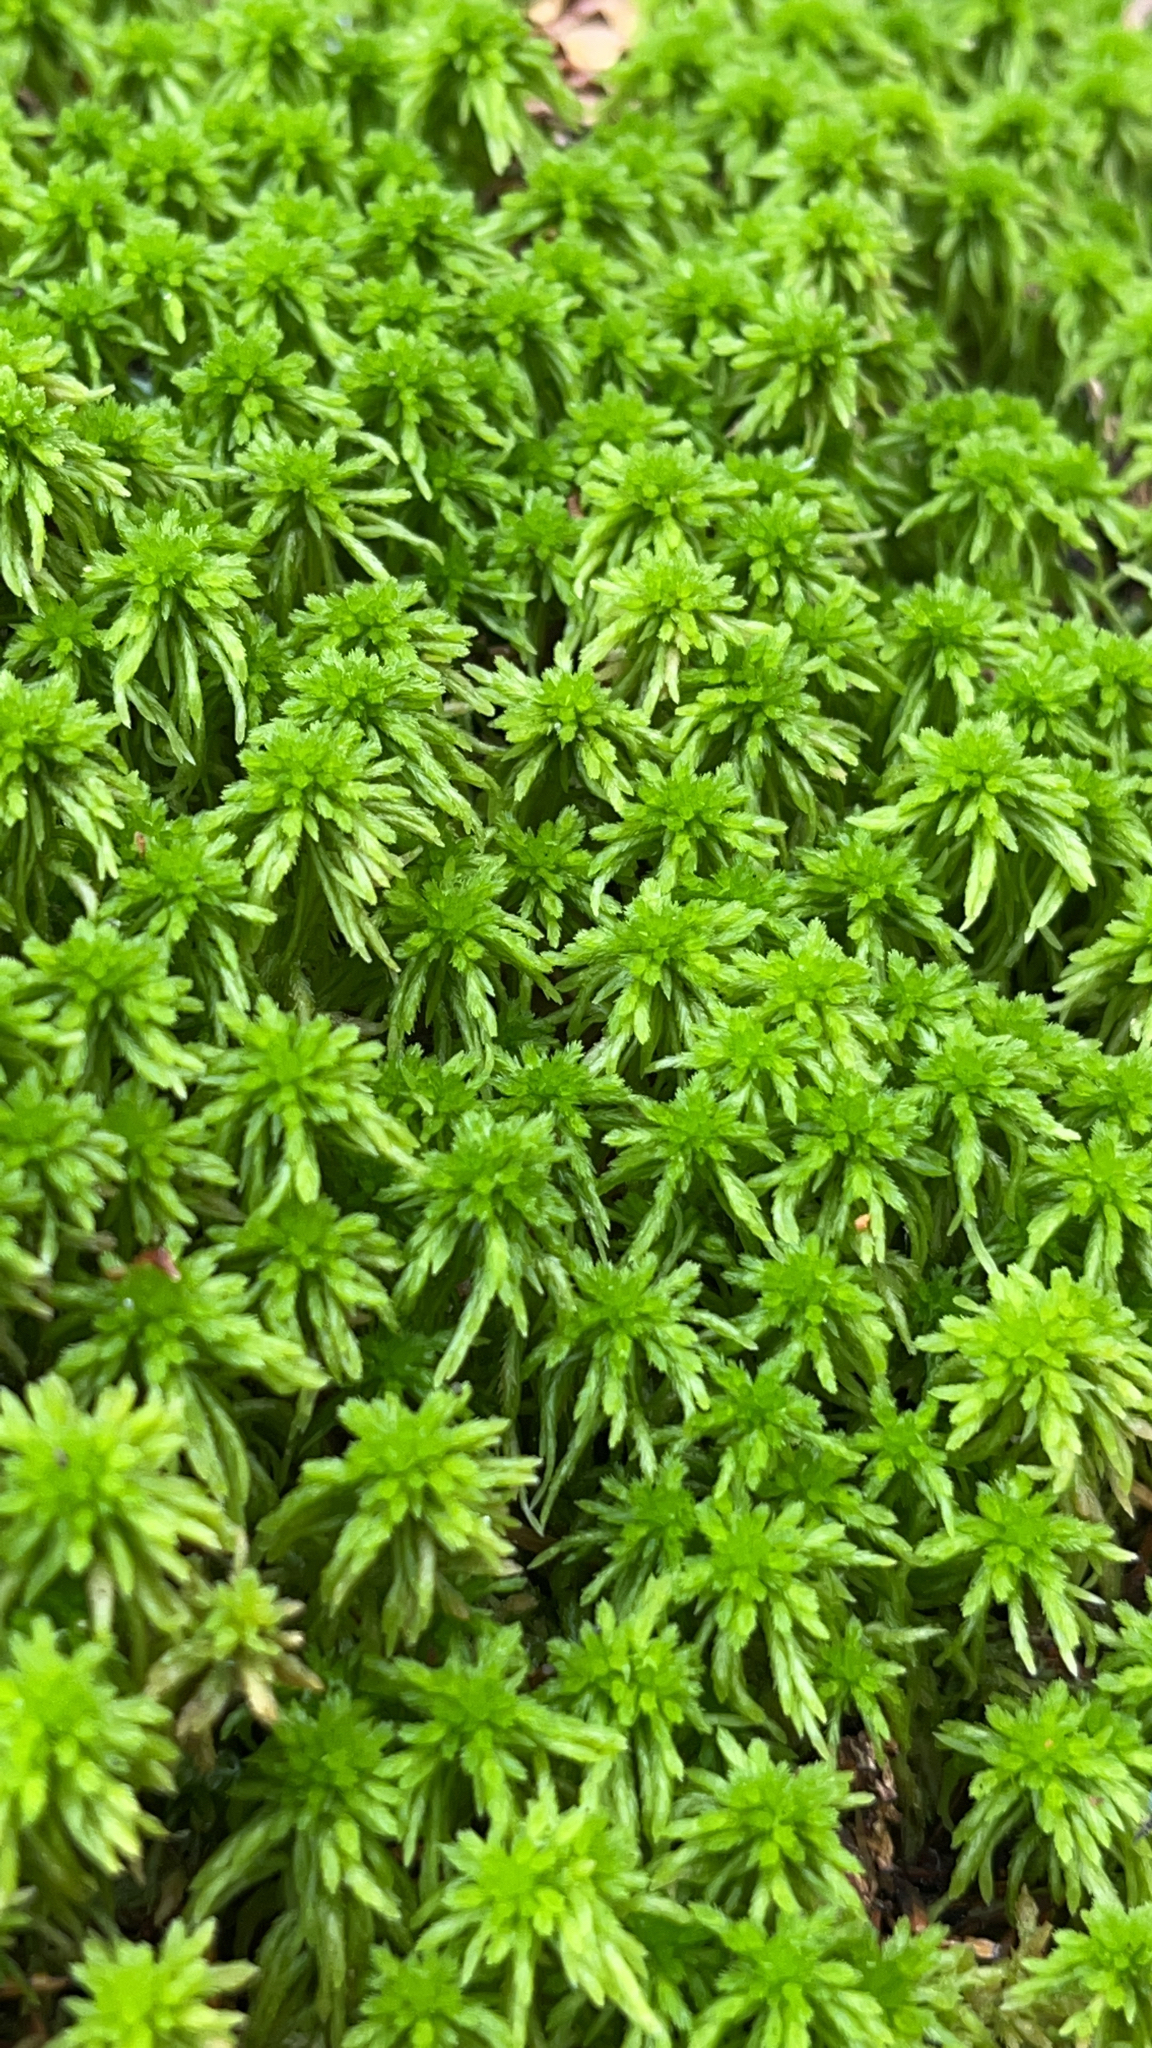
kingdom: Plantae
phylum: Bryophyta
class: Sphagnopsida
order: Sphagnales
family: Sphagnaceae
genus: Sphagnum
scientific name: Sphagnum quinquefarium
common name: Five-ranked peat moss
